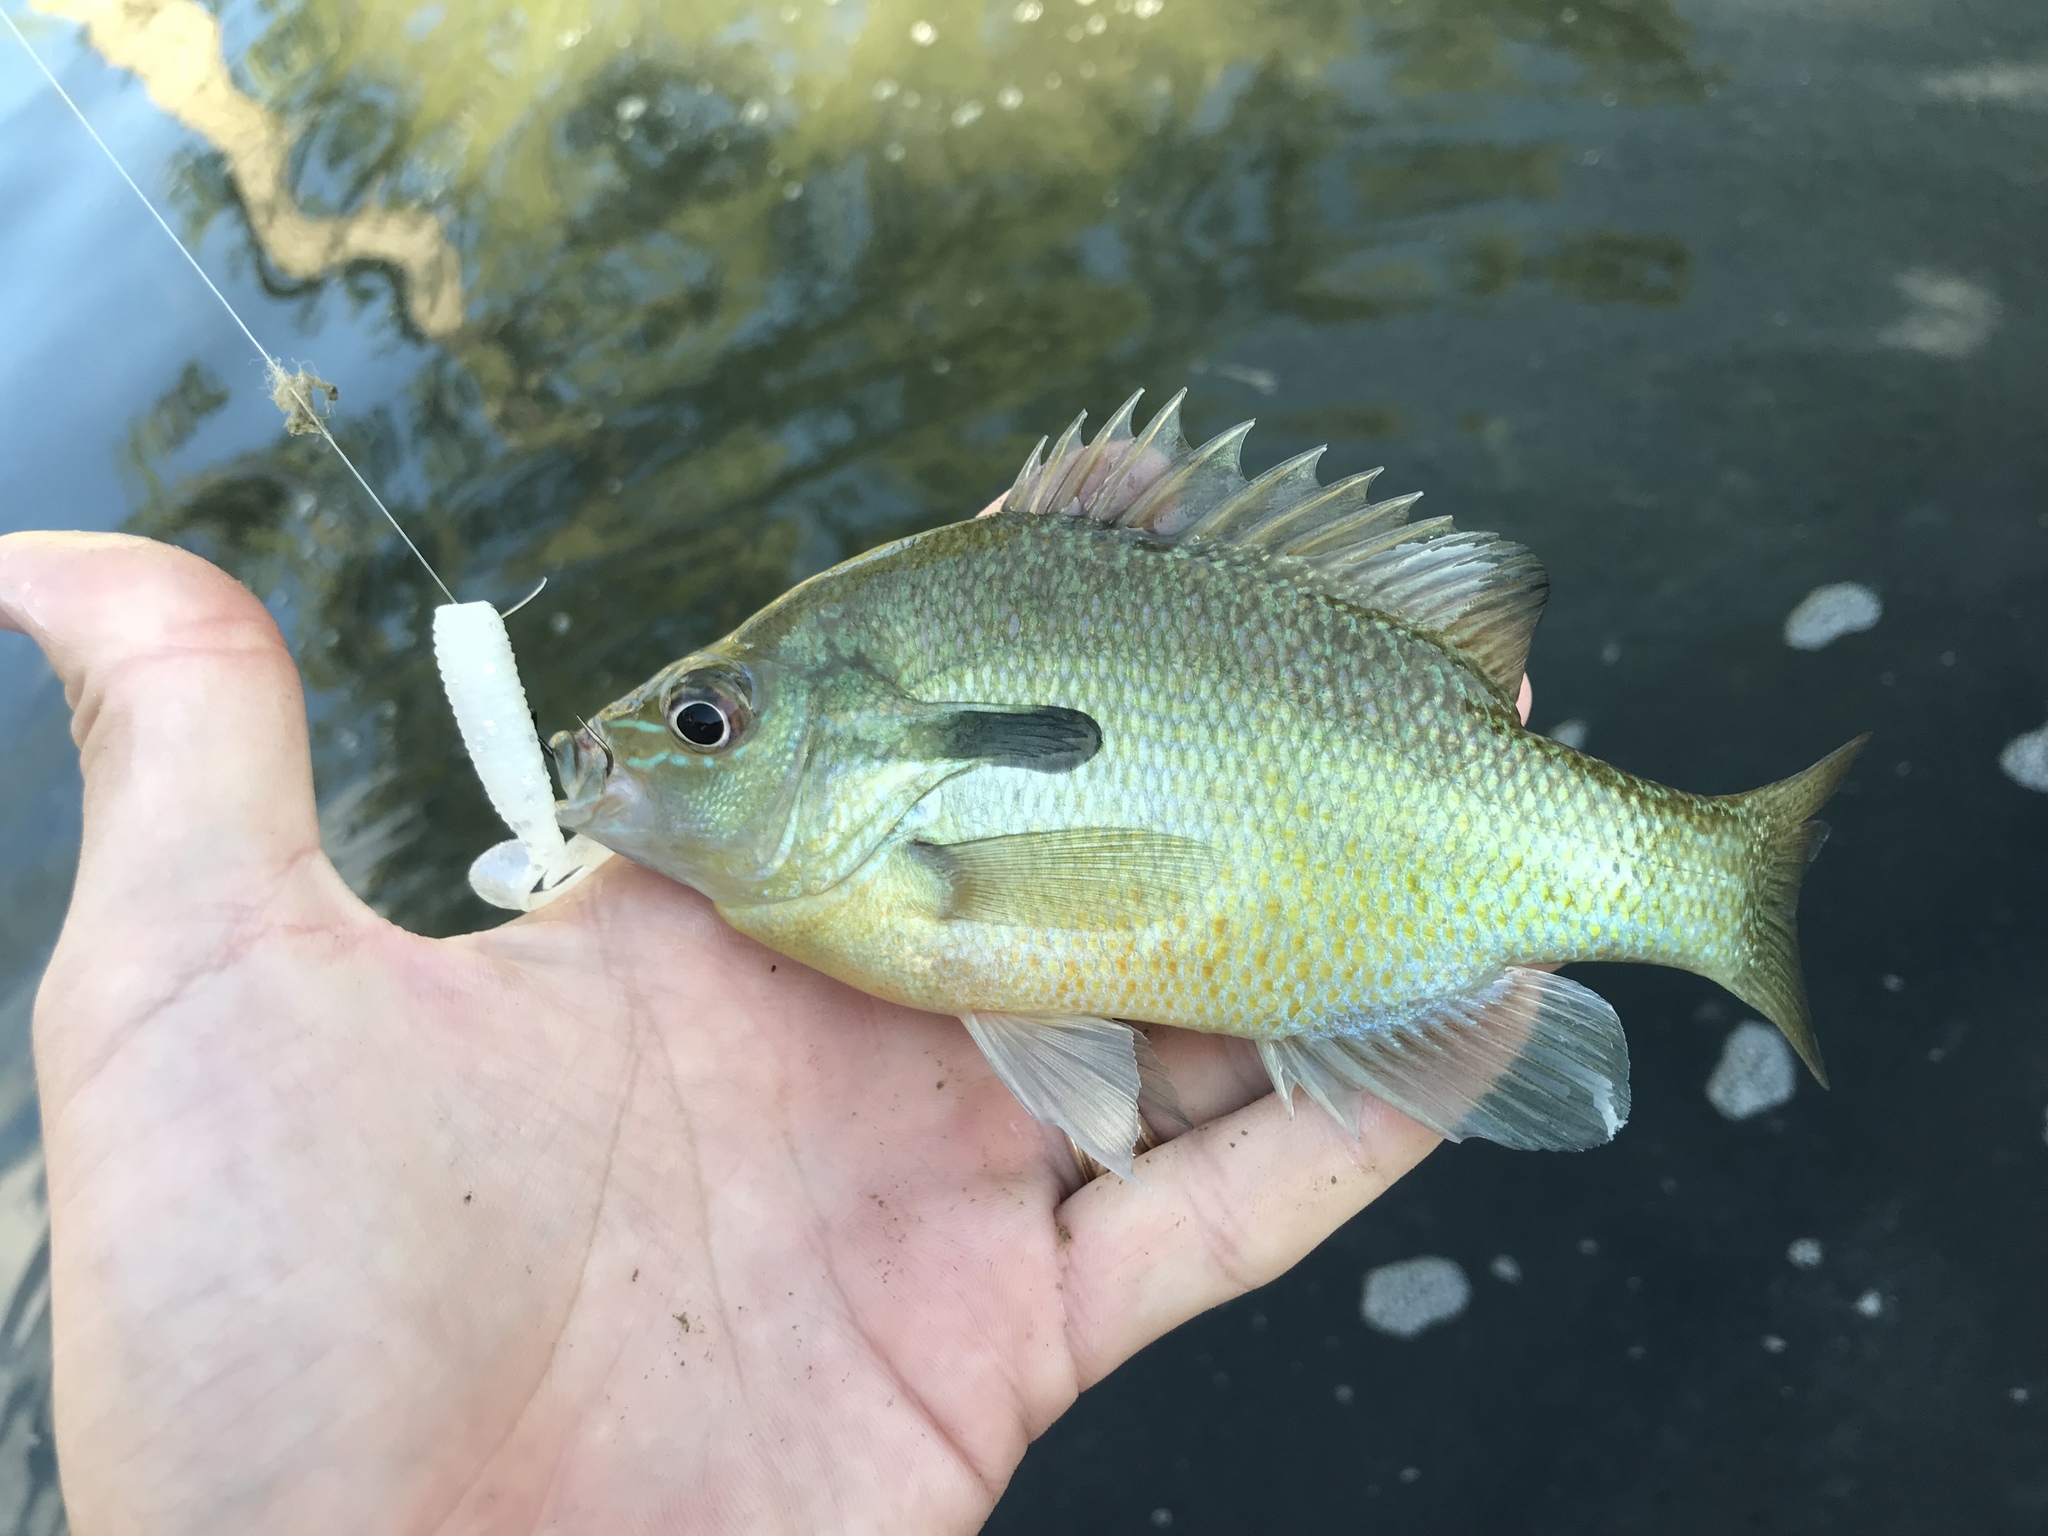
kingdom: Animalia
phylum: Chordata
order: Perciformes
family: Centrarchidae
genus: Lepomis
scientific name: Lepomis auritus
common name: Redbreast sunfish
